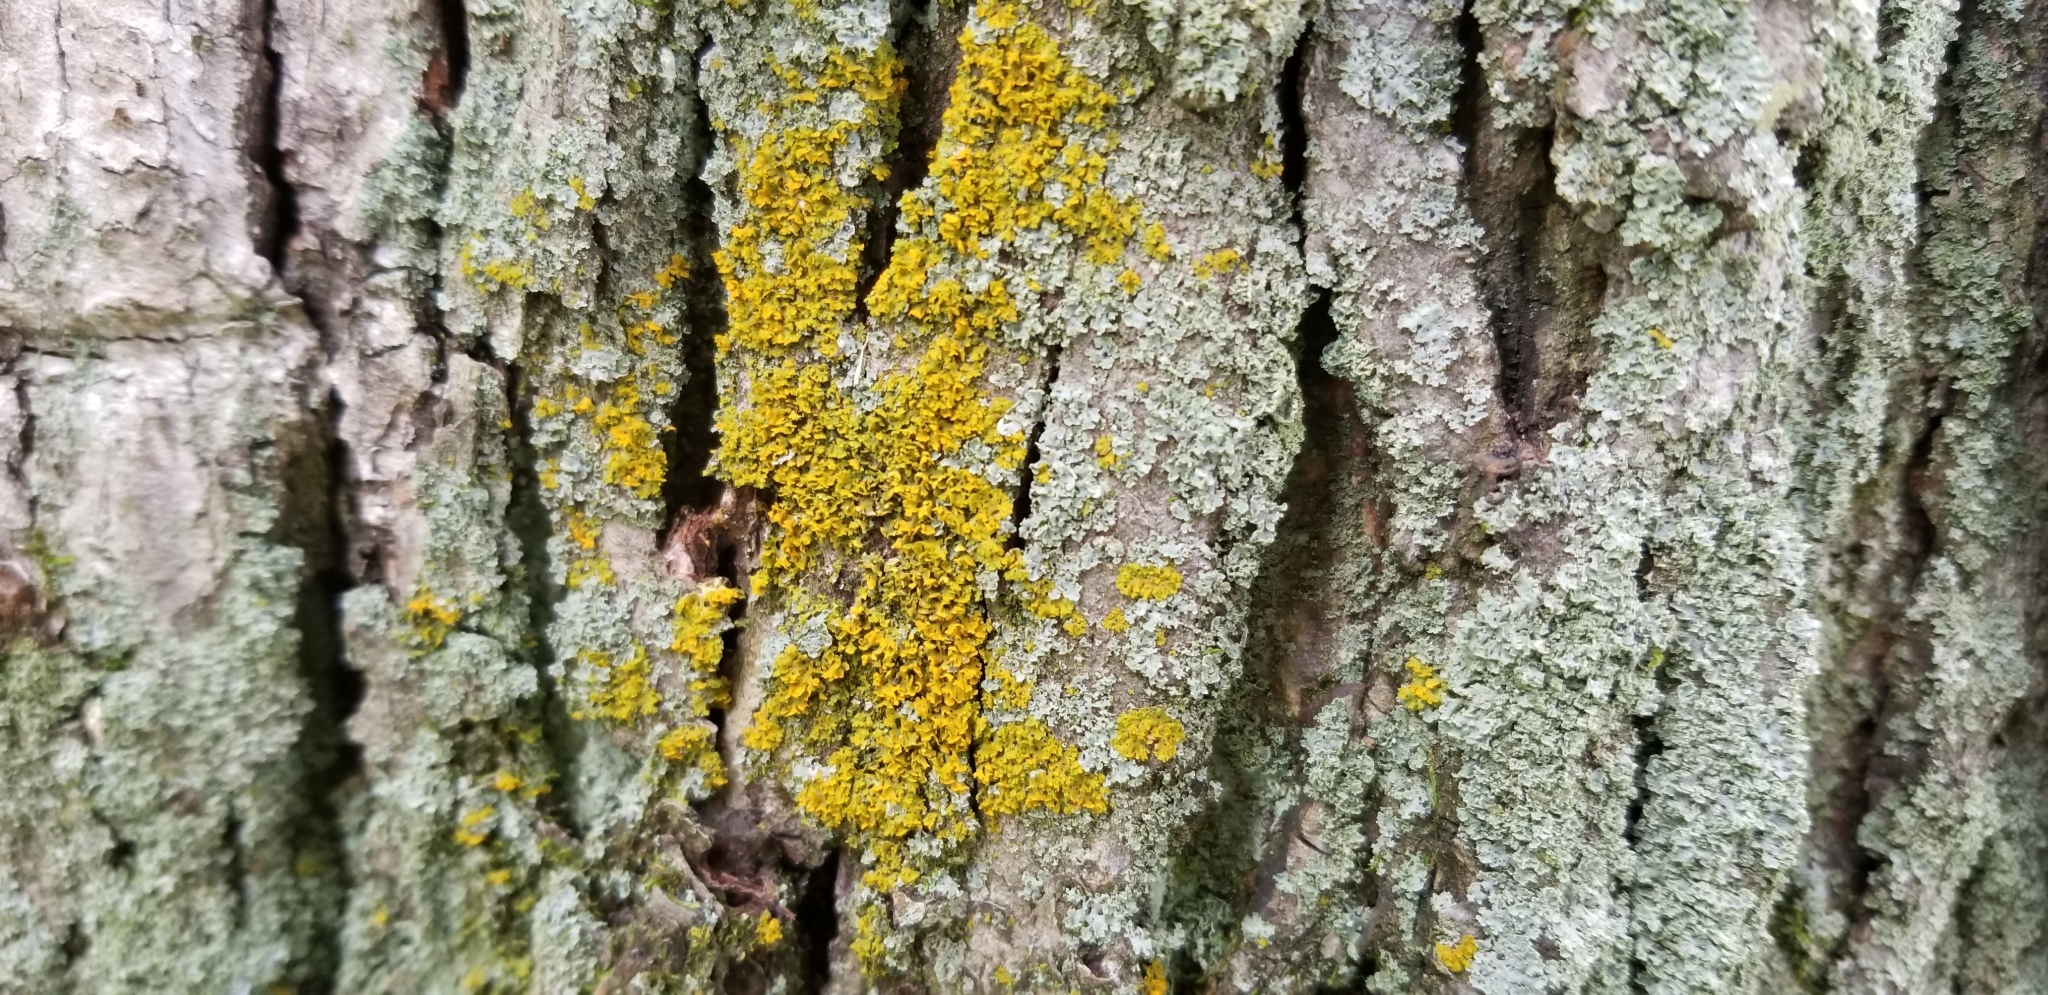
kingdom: Fungi
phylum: Ascomycota
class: Candelariomycetes
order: Candelariales
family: Candelariaceae
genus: Candelaria
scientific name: Candelaria concolor
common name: Candleflame lichen
